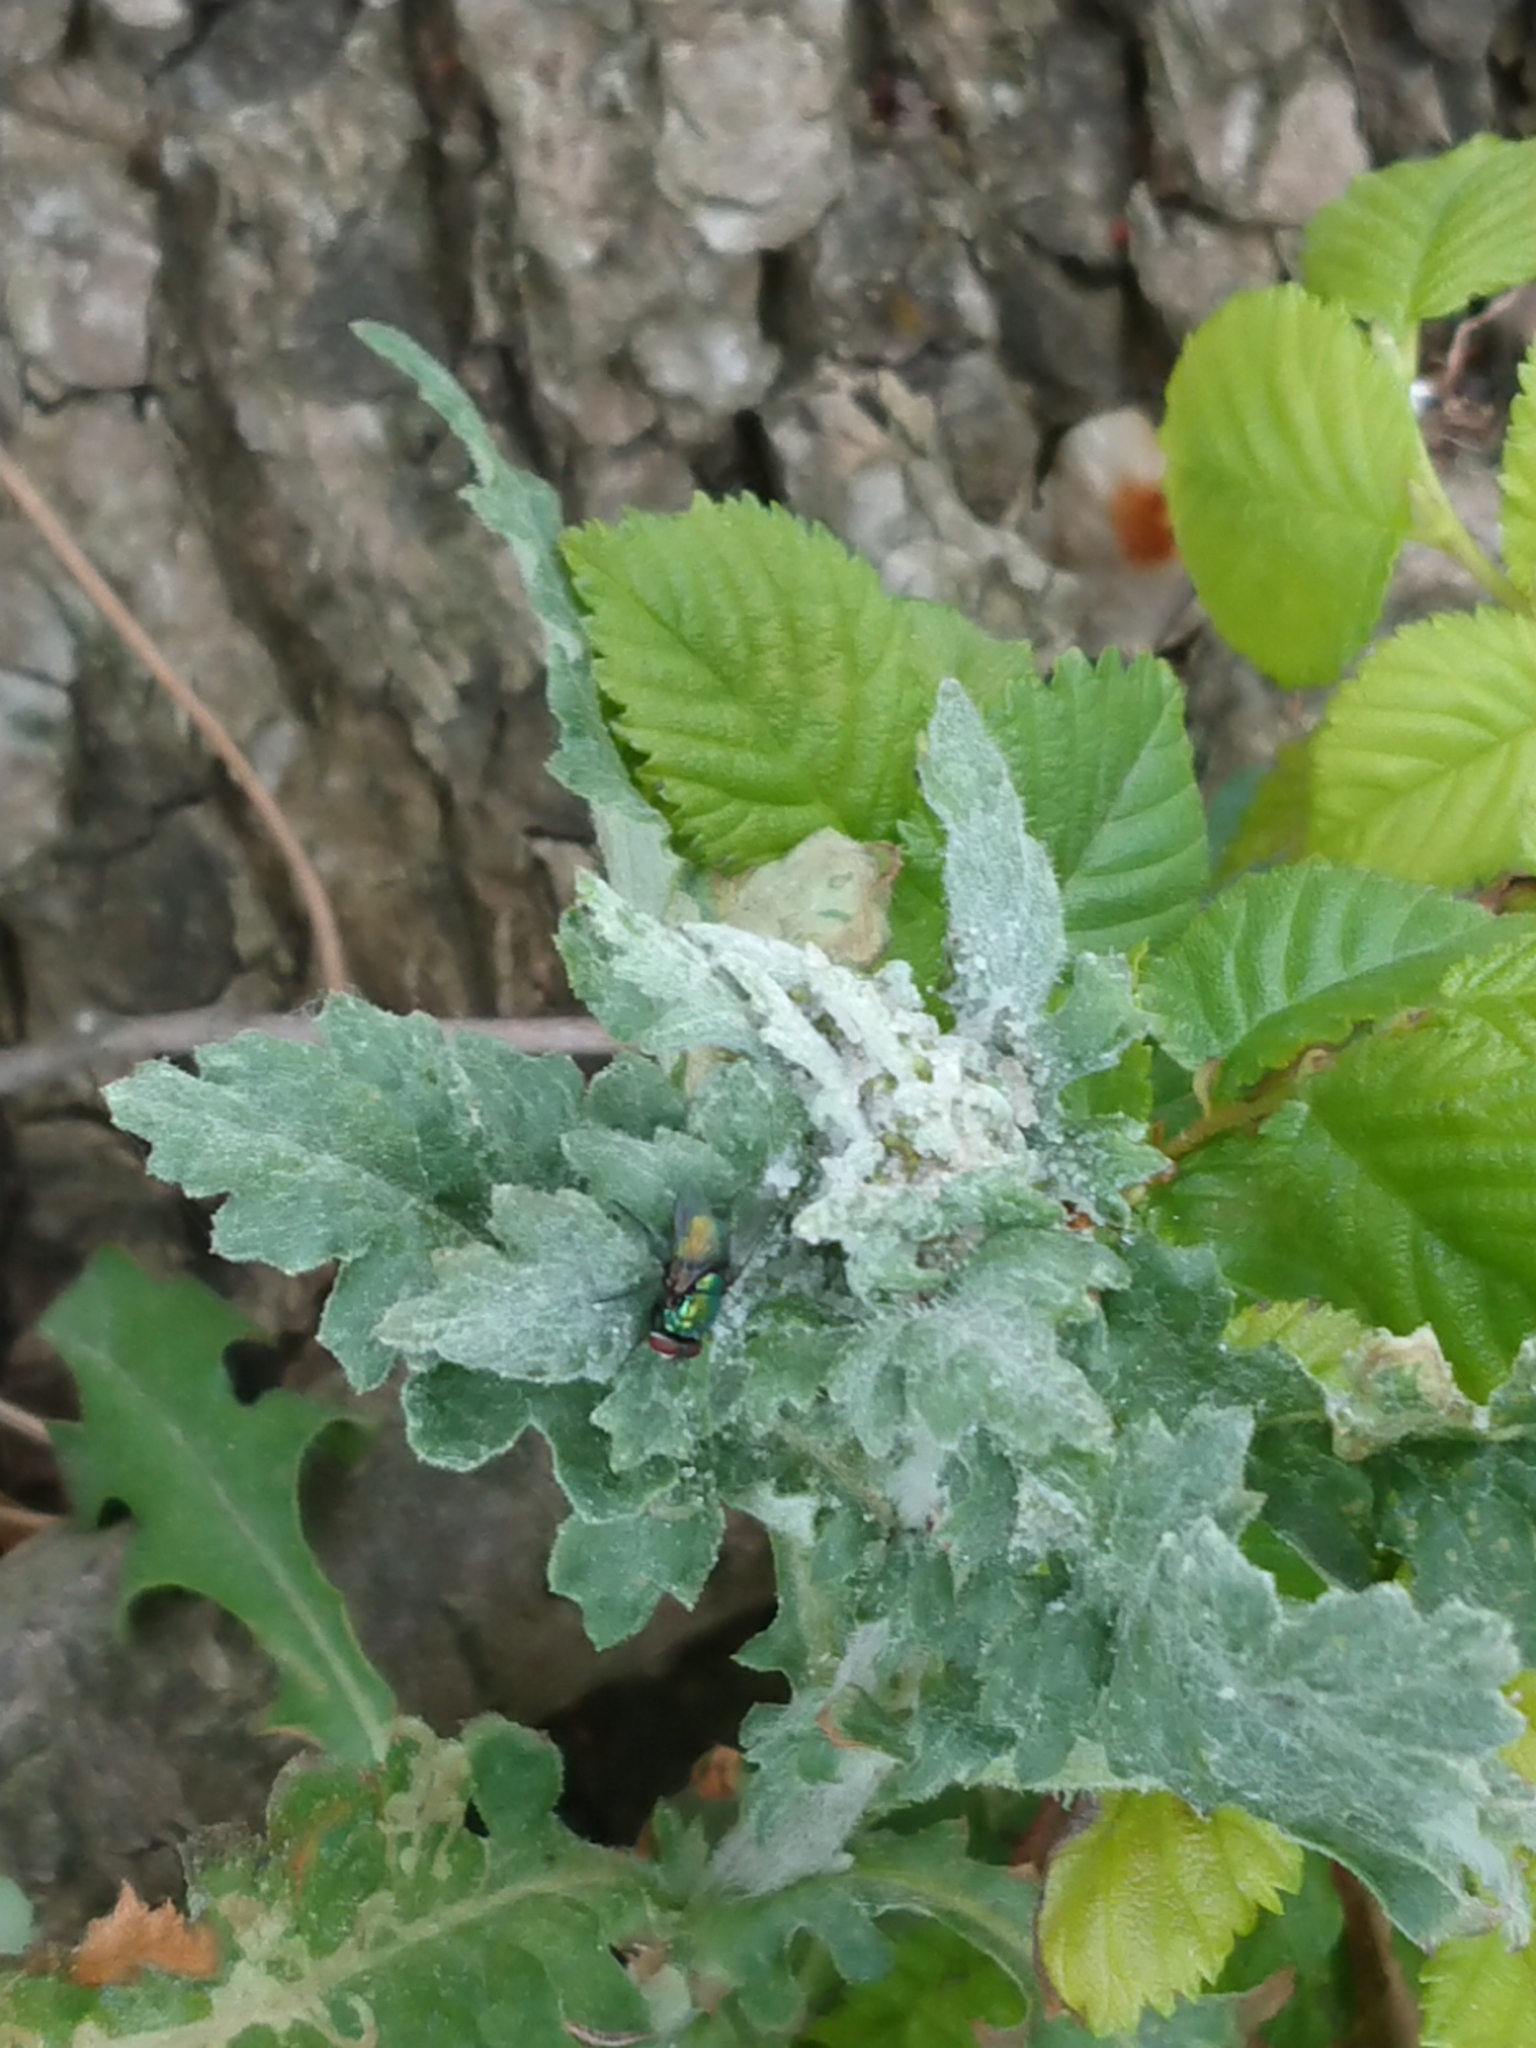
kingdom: Animalia
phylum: Arthropoda
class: Insecta
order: Diptera
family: Calliphoridae
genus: Lucilia
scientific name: Lucilia sericata
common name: Blow fly
